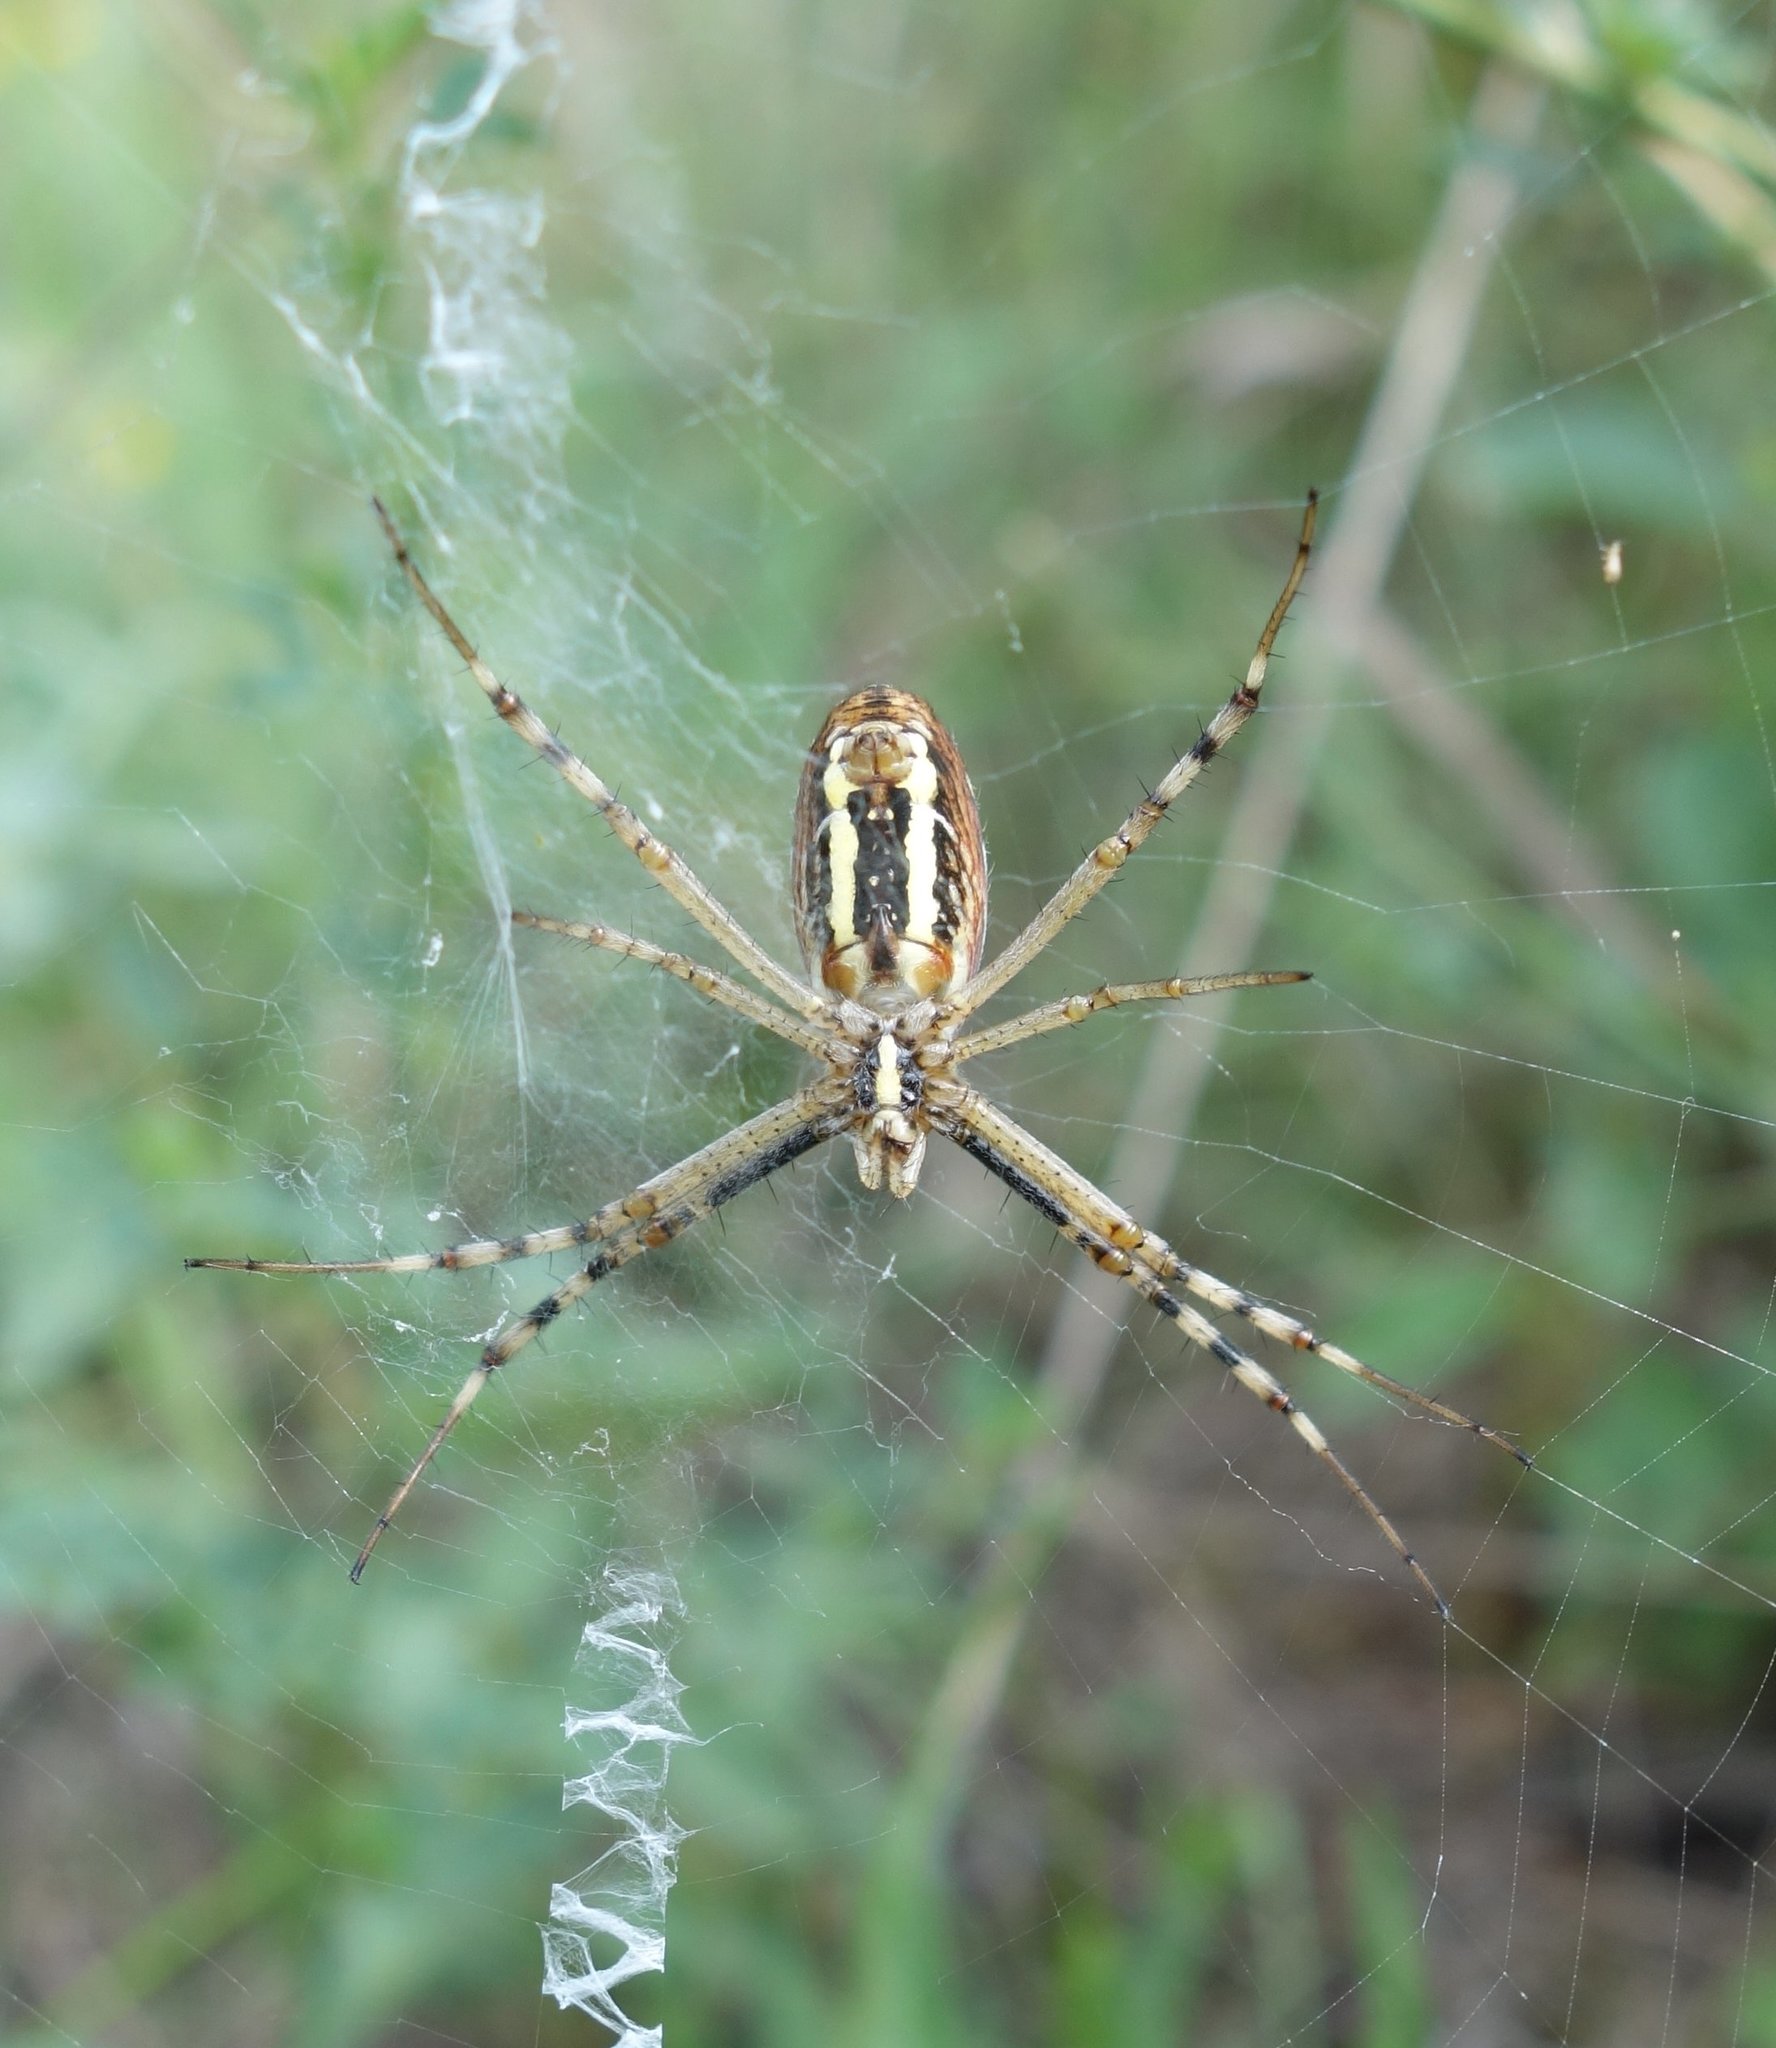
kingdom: Animalia
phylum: Arthropoda
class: Arachnida
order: Araneae
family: Araneidae
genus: Argiope
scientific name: Argiope bruennichi
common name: Wasp spider
